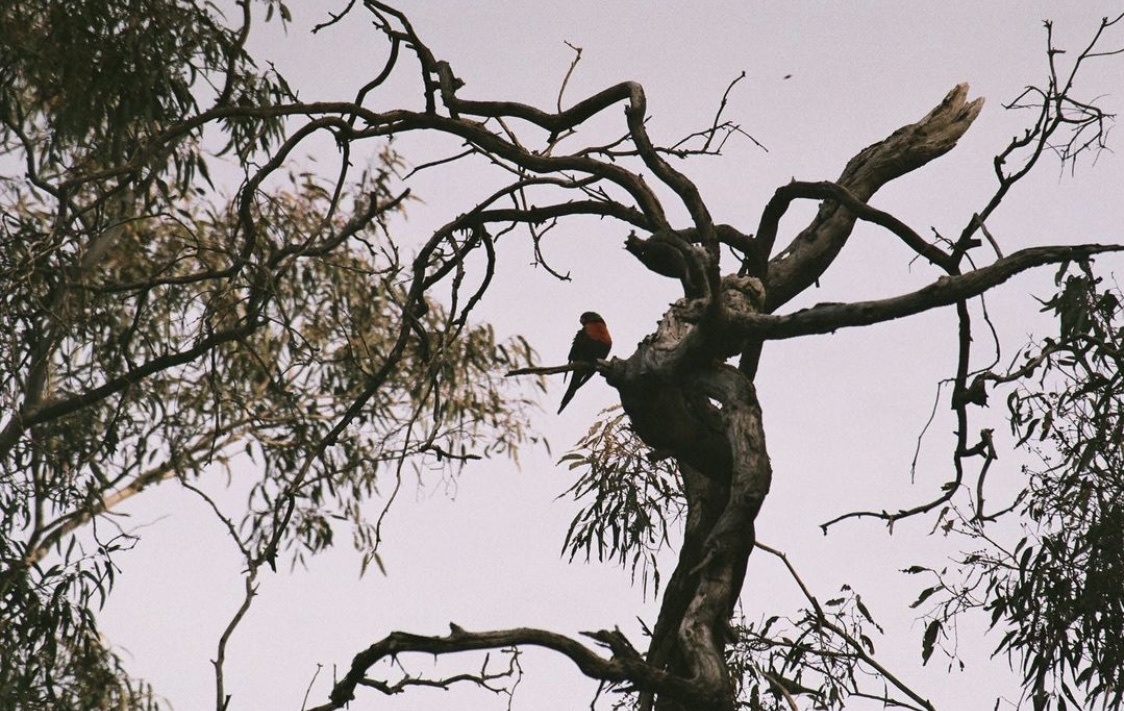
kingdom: Animalia
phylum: Chordata
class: Aves
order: Psittaciformes
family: Psittacidae
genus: Trichoglossus
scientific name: Trichoglossus haematodus
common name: Coconut lorikeet
